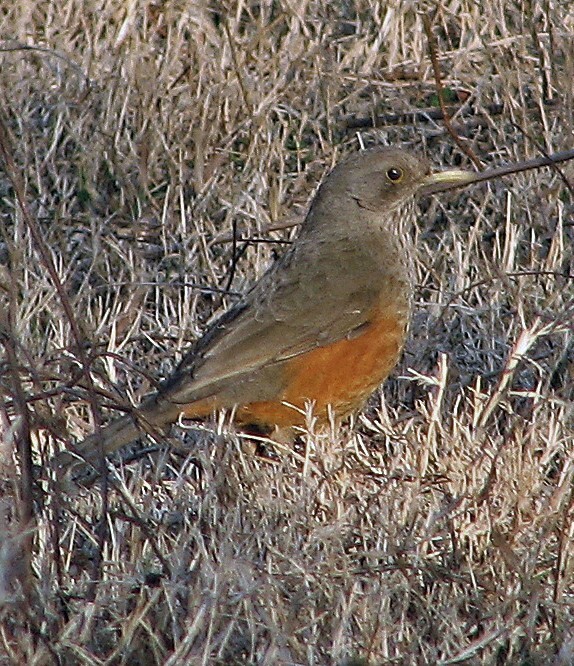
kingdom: Animalia
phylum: Chordata
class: Aves
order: Passeriformes
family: Turdidae
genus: Turdus
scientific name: Turdus rufiventris
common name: Rufous-bellied thrush
